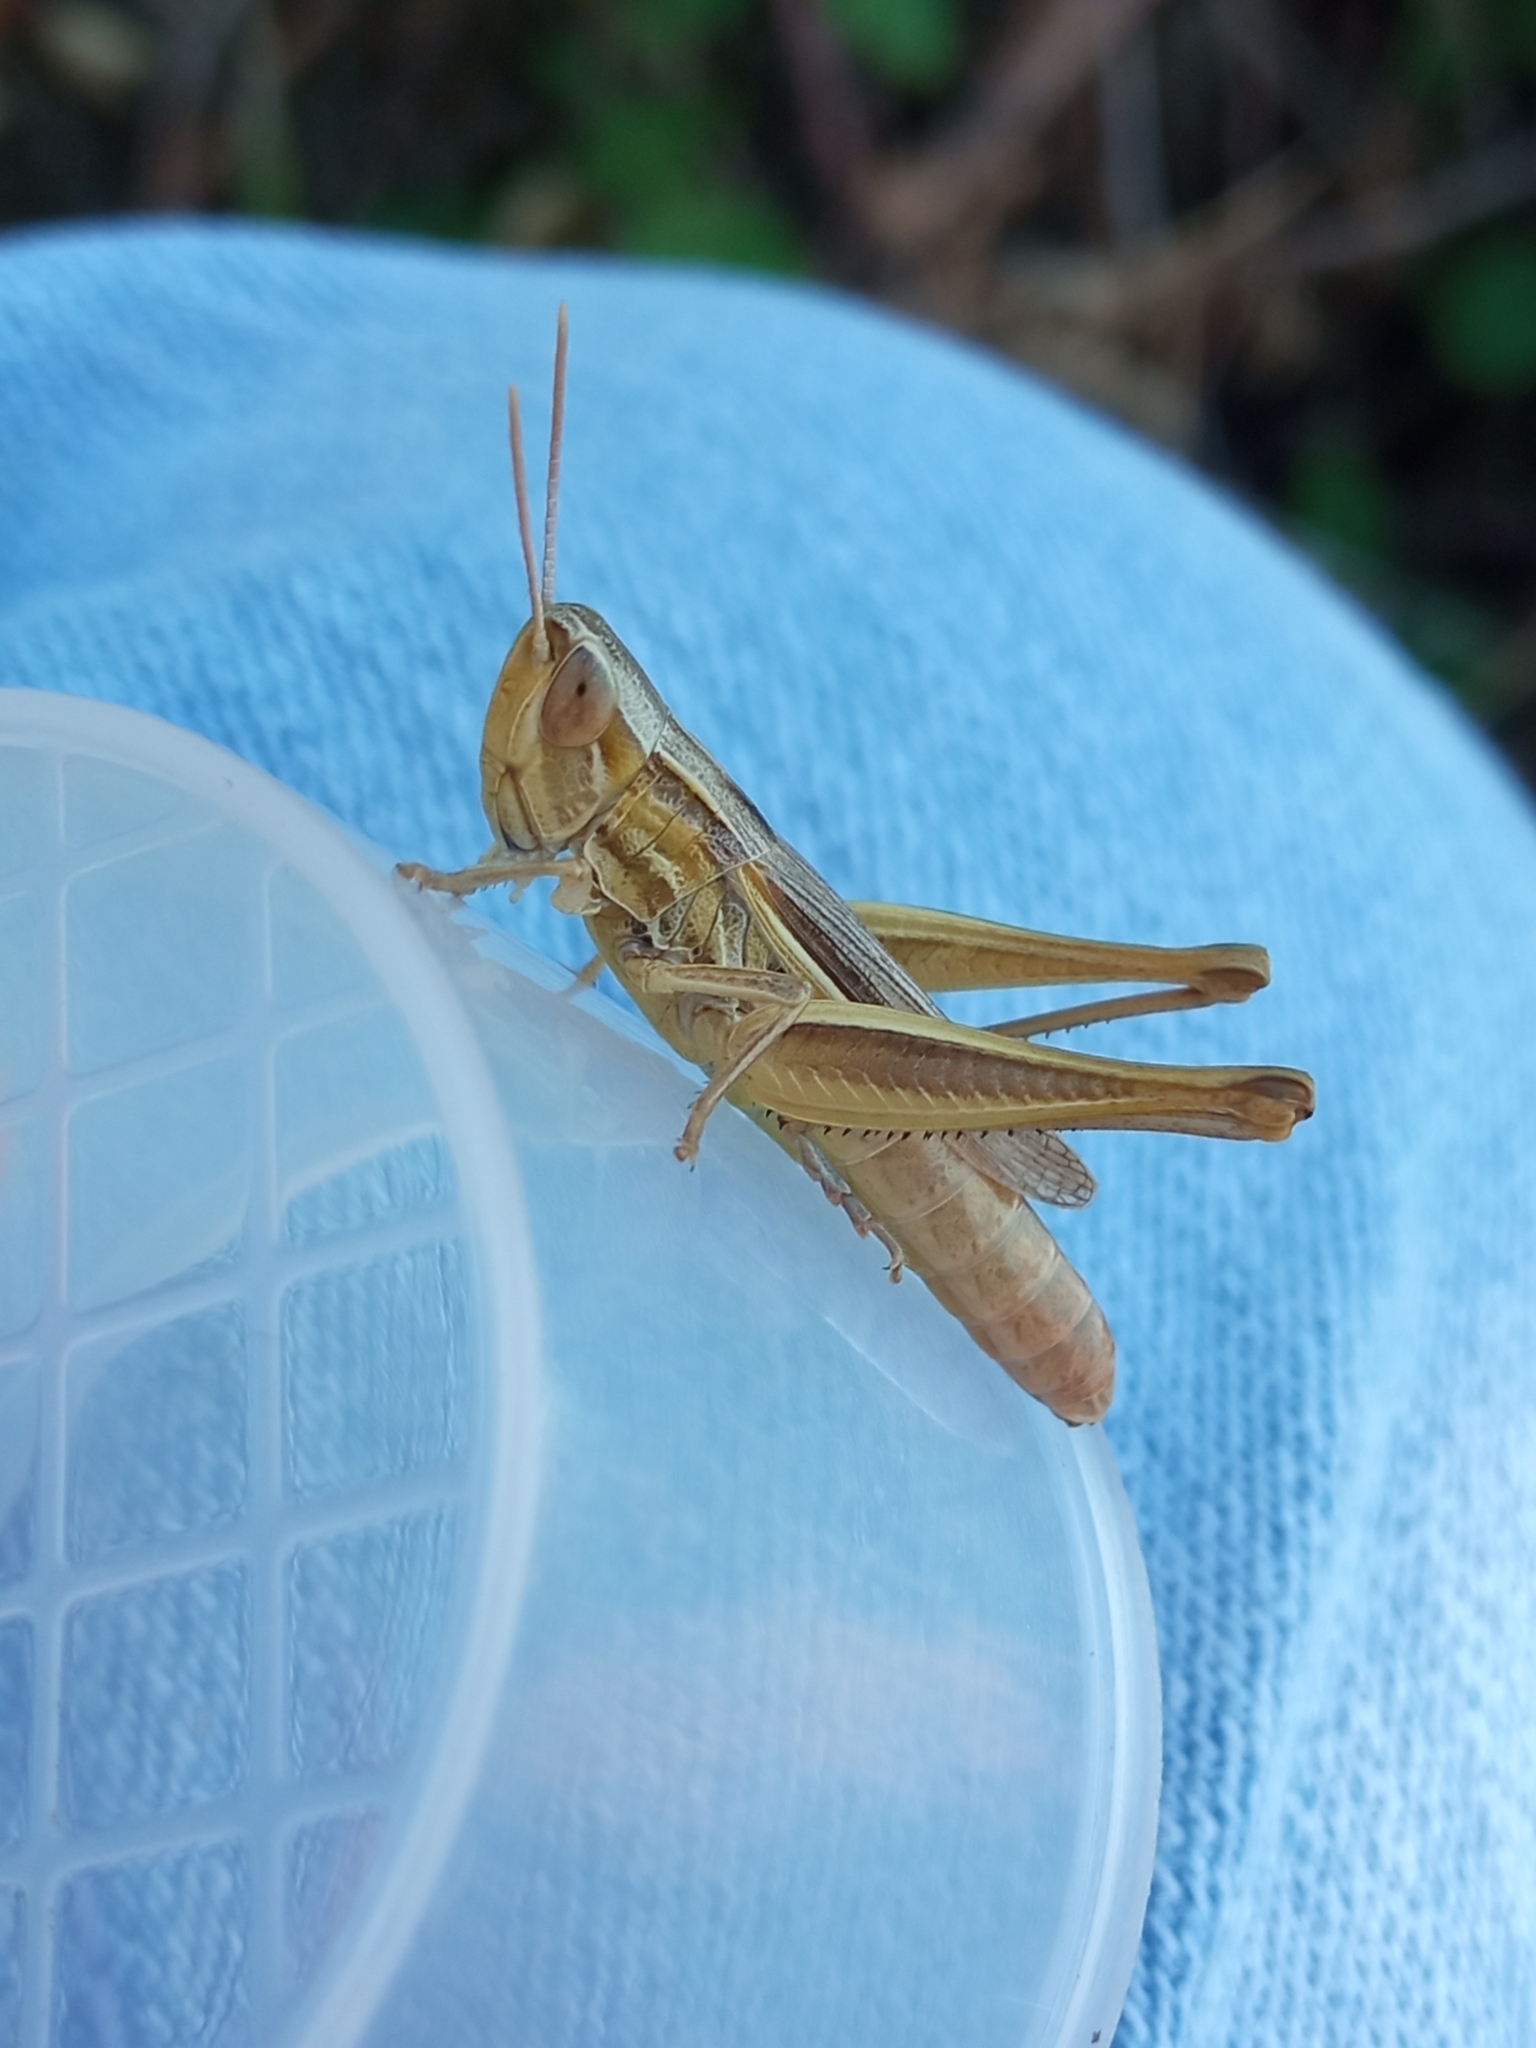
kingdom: Animalia
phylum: Arthropoda
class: Insecta
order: Orthoptera
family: Acrididae
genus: Euchorthippus
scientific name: Euchorthippus declivus
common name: Common straw grasshopper
